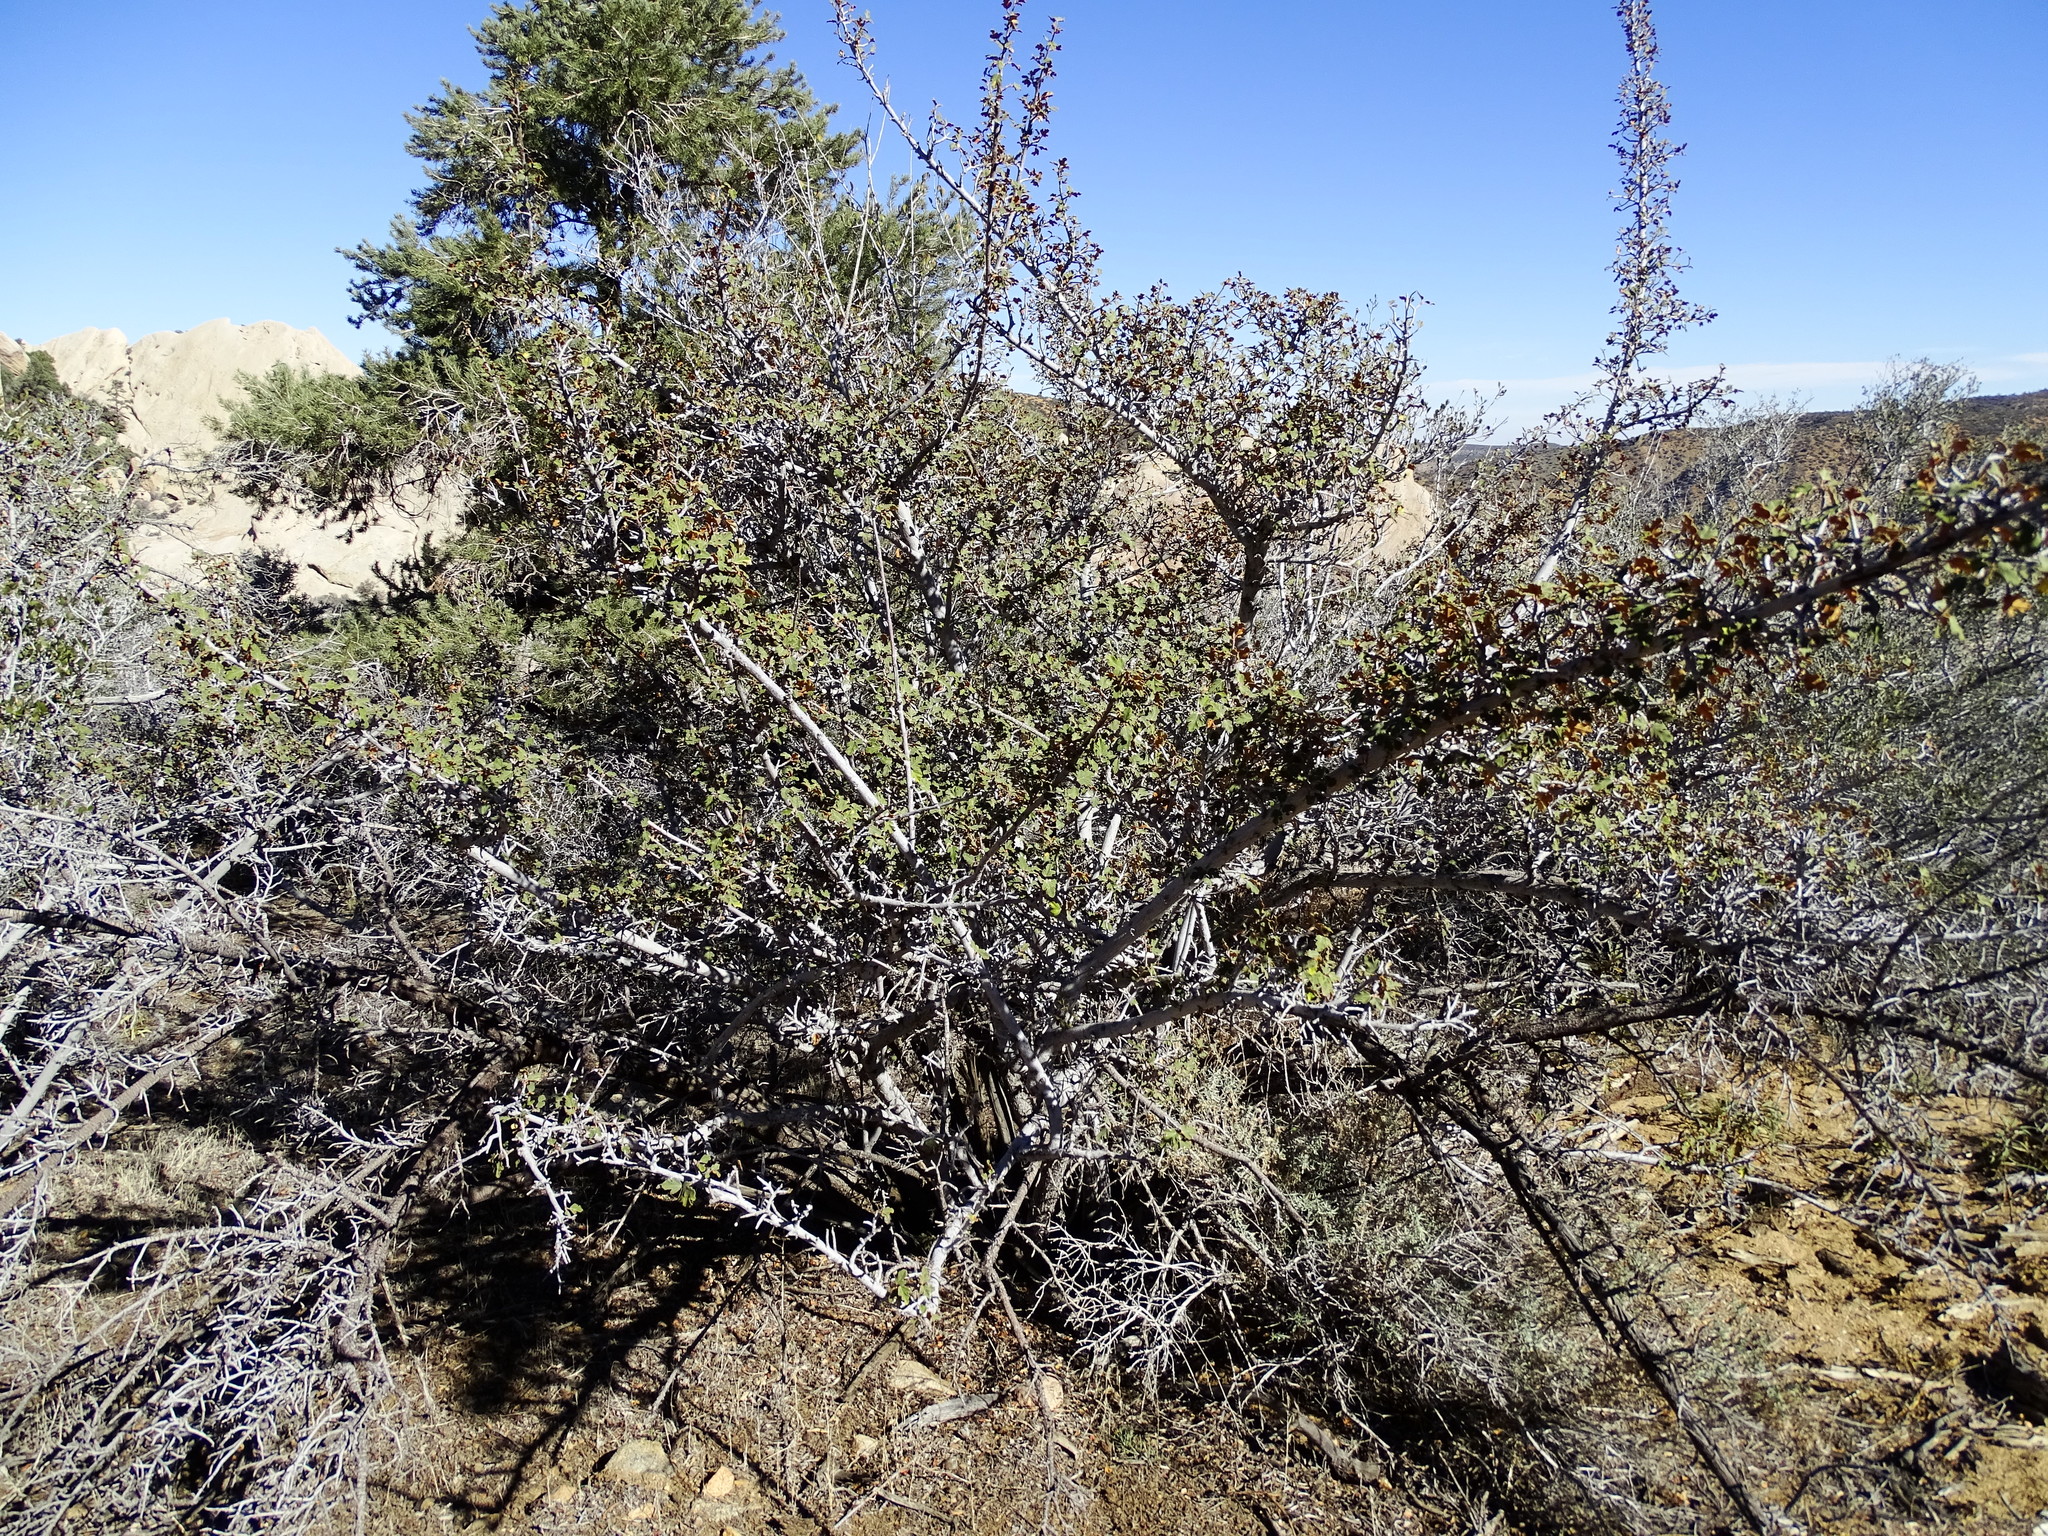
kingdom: Plantae
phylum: Tracheophyta
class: Magnoliopsida
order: Malvales
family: Malvaceae
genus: Fremontodendron
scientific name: Fremontodendron californicum
